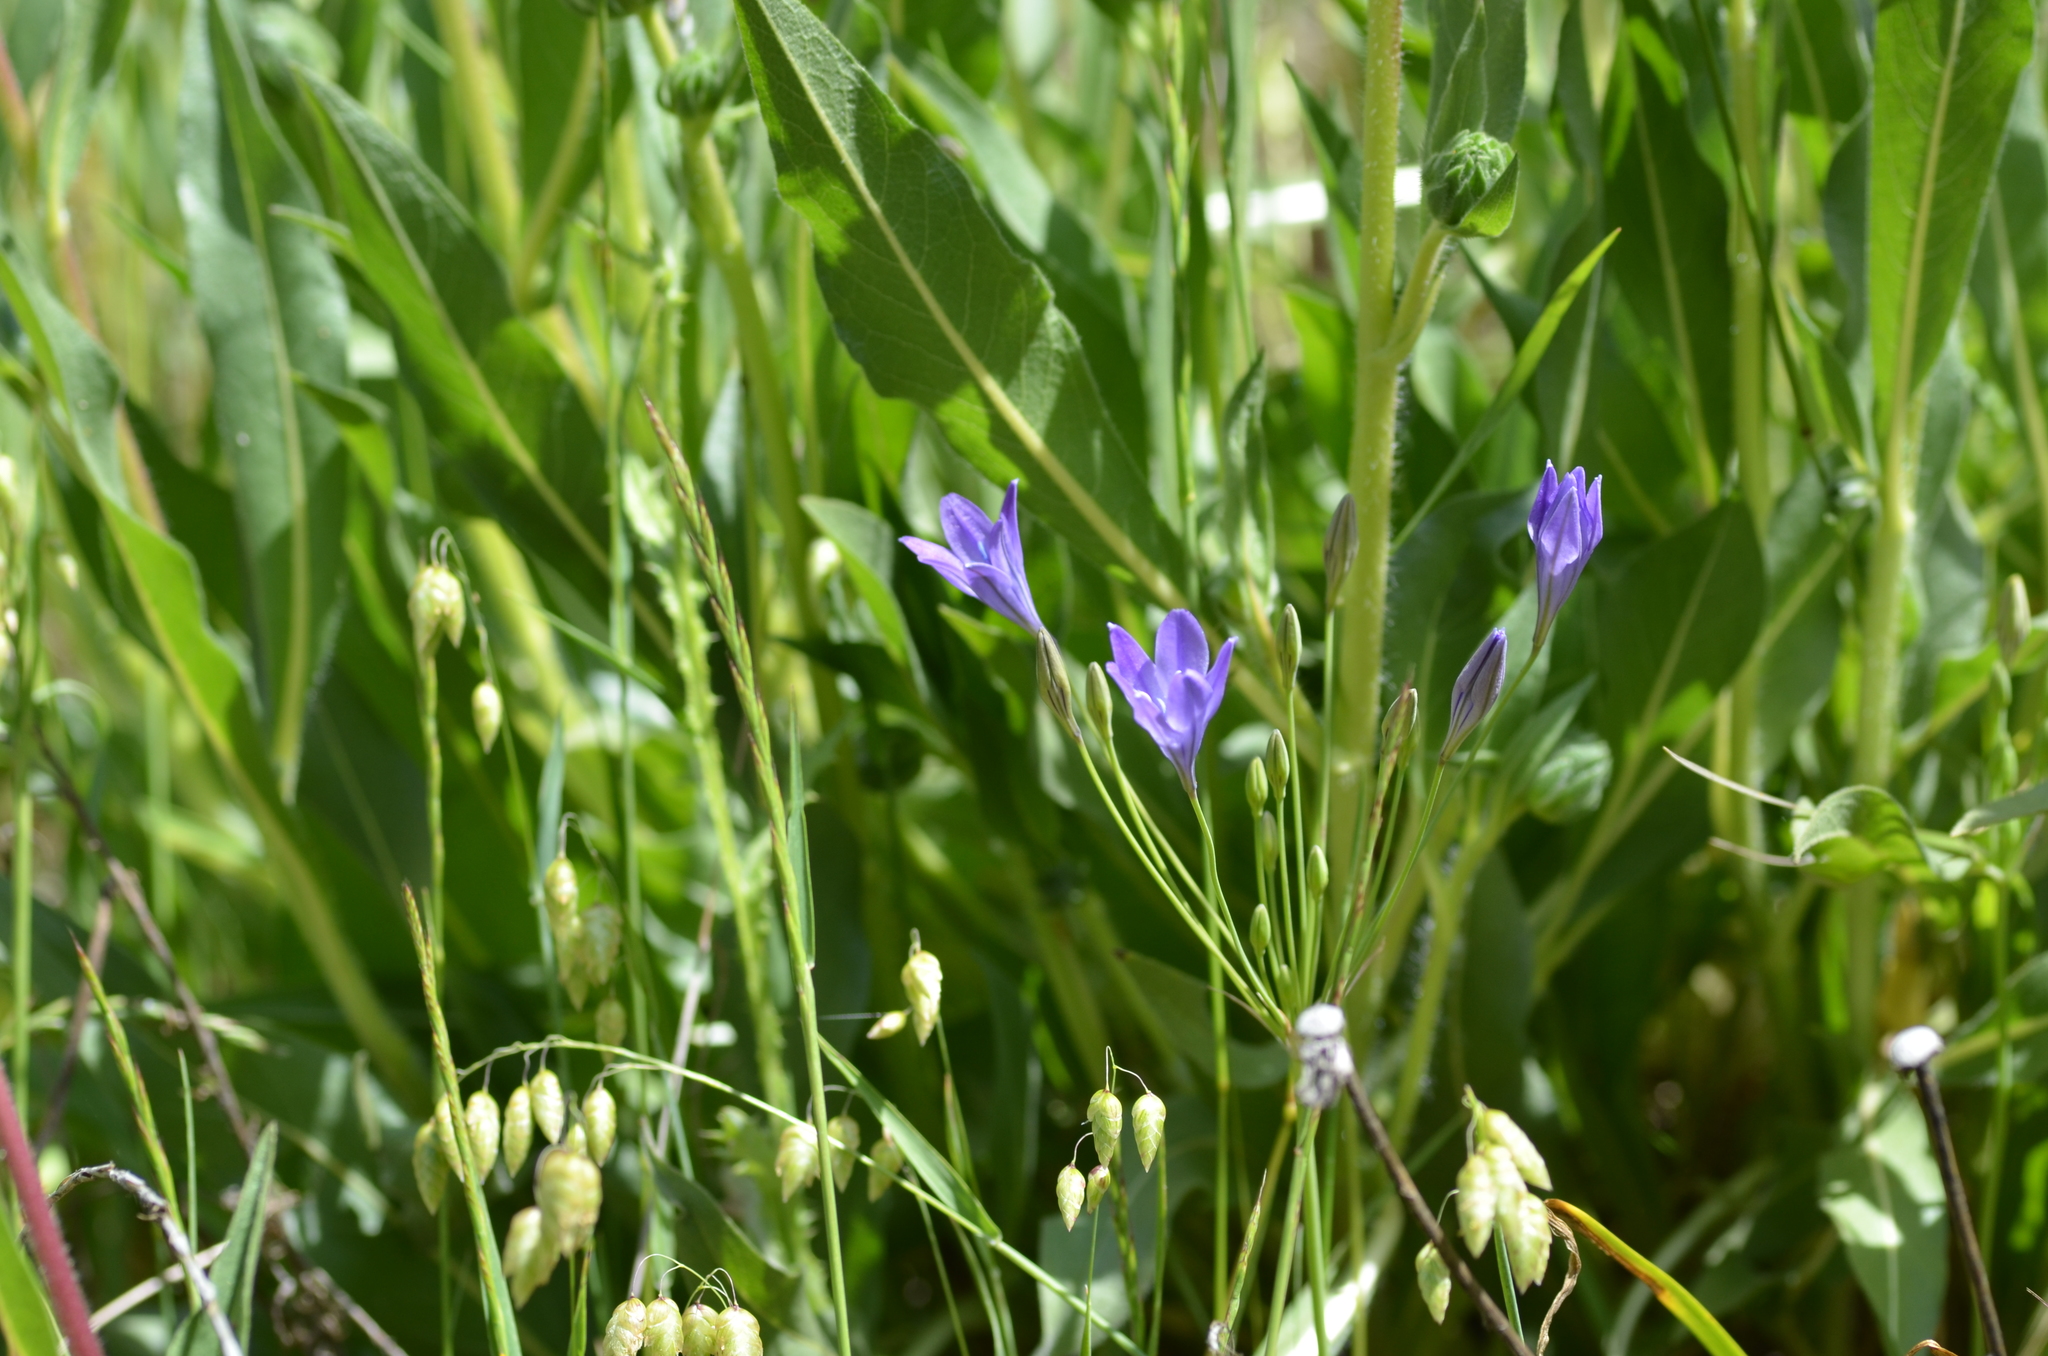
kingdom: Plantae
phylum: Tracheophyta
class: Liliopsida
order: Asparagales
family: Asparagaceae
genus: Triteleia
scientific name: Triteleia laxa
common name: Triplet-lily
